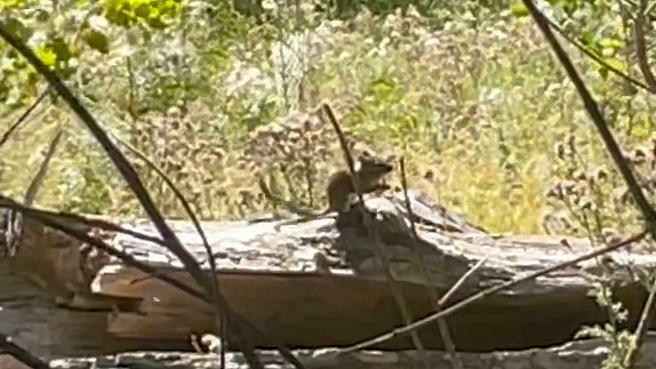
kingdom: Animalia
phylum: Chordata
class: Mammalia
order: Rodentia
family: Sciuridae
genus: Tamias
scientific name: Tamias townsendii
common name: Townsend's chipmunk
